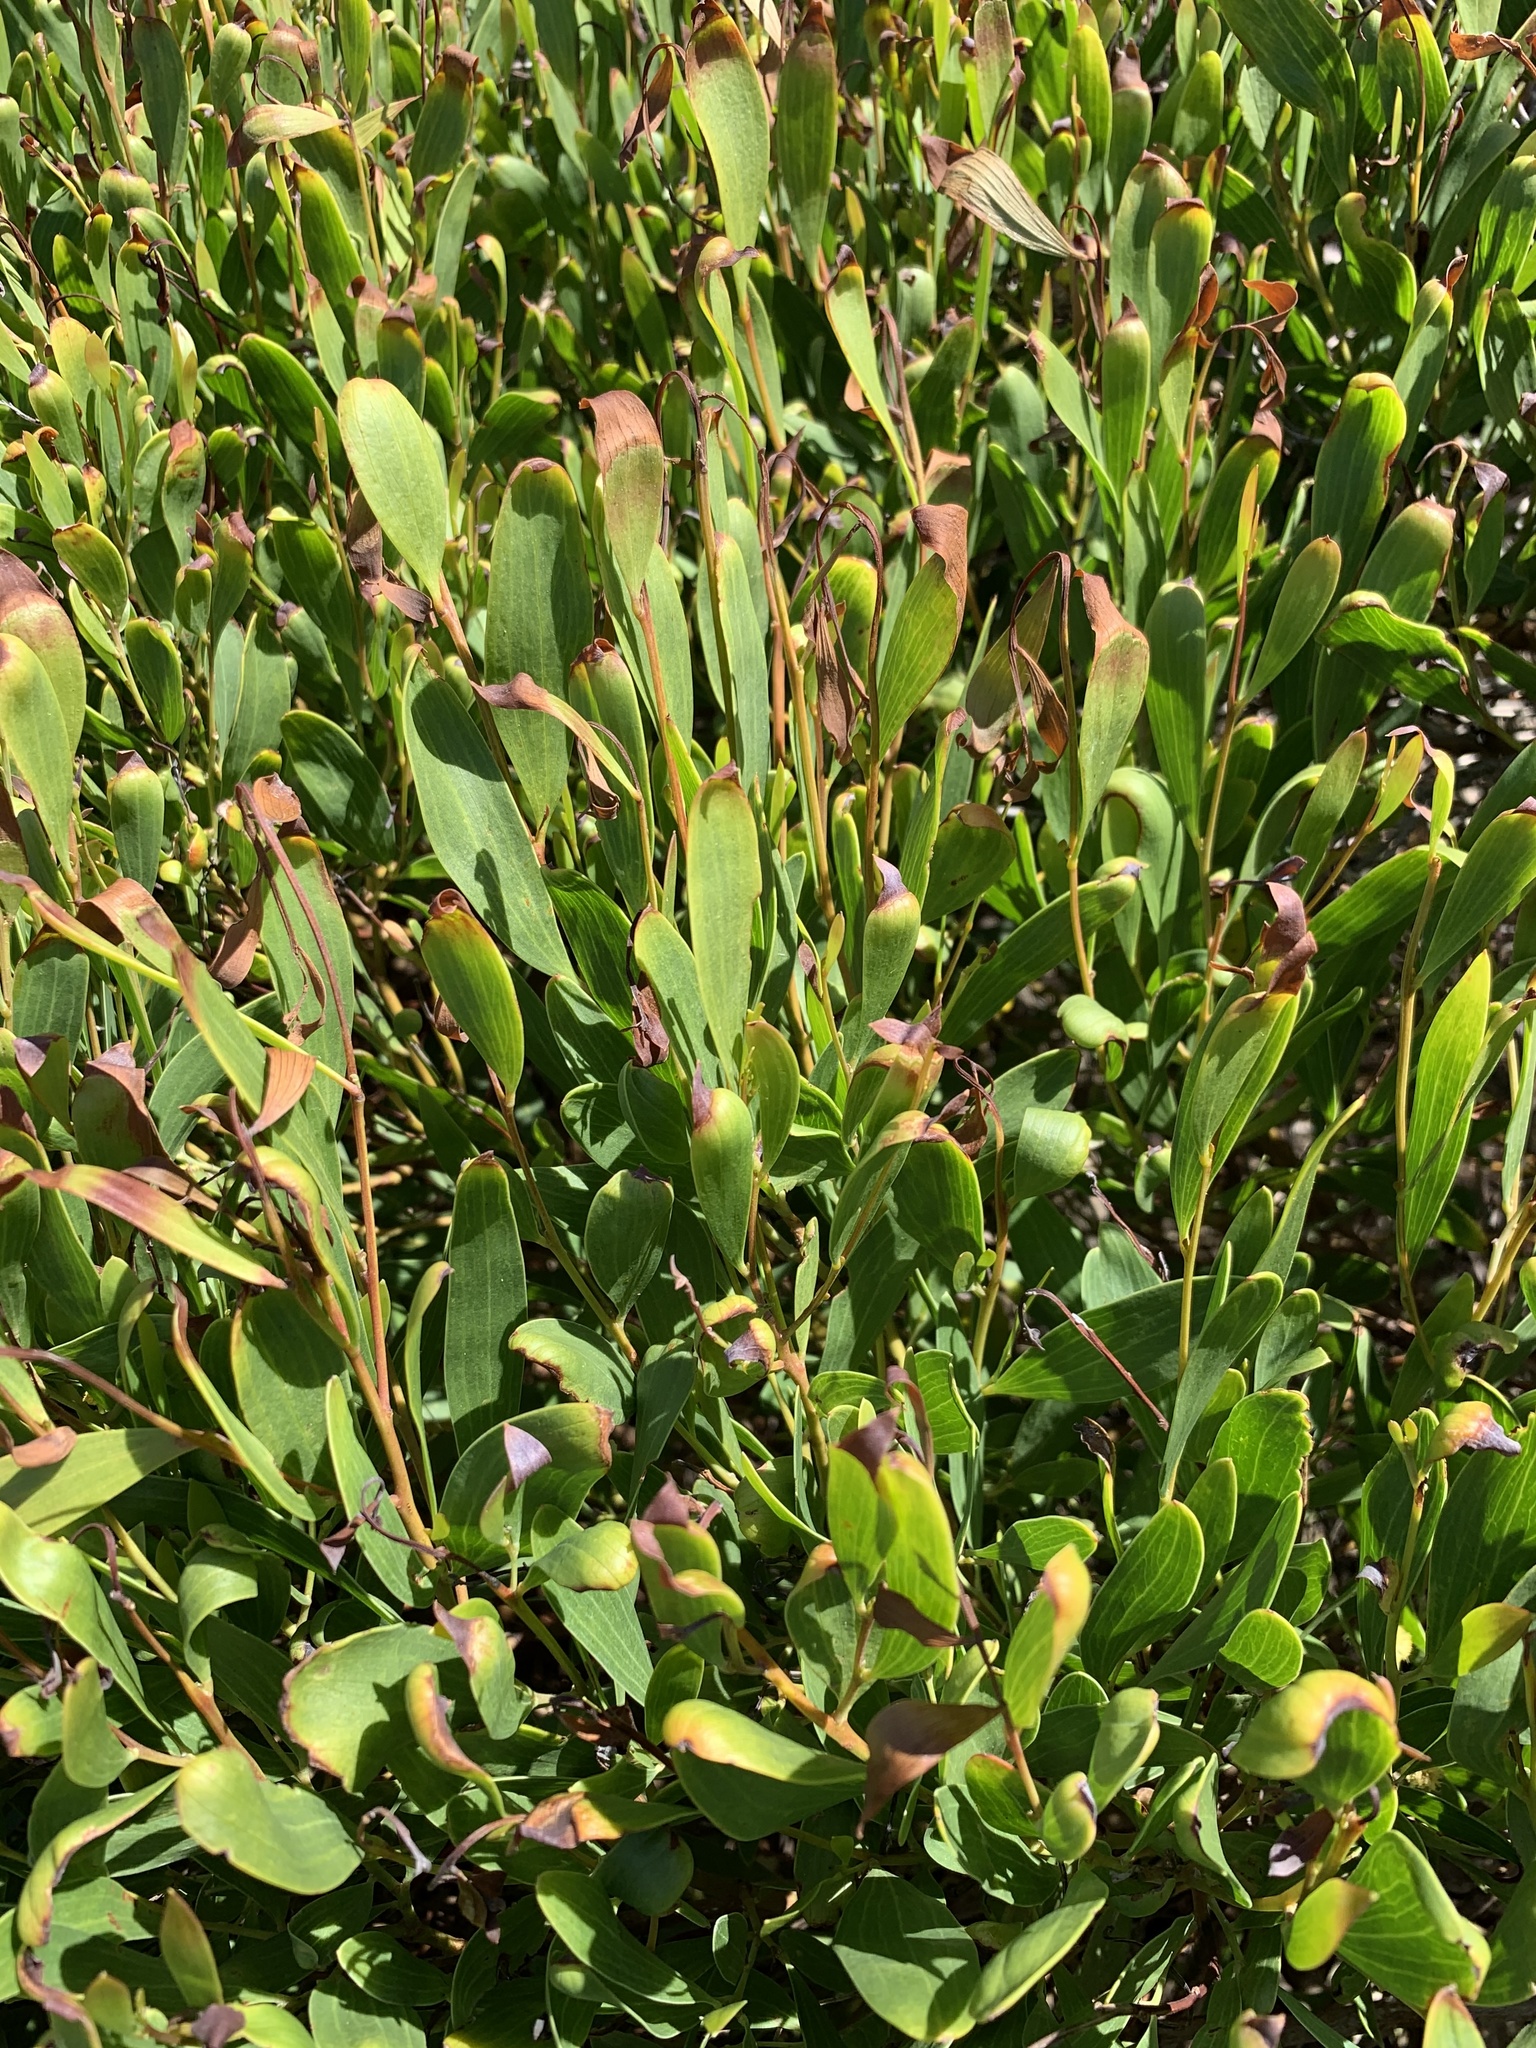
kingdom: Plantae
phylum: Tracheophyta
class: Magnoliopsida
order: Fabales
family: Fabaceae
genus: Acacia
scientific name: Acacia cyclops
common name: Coastal wattle
